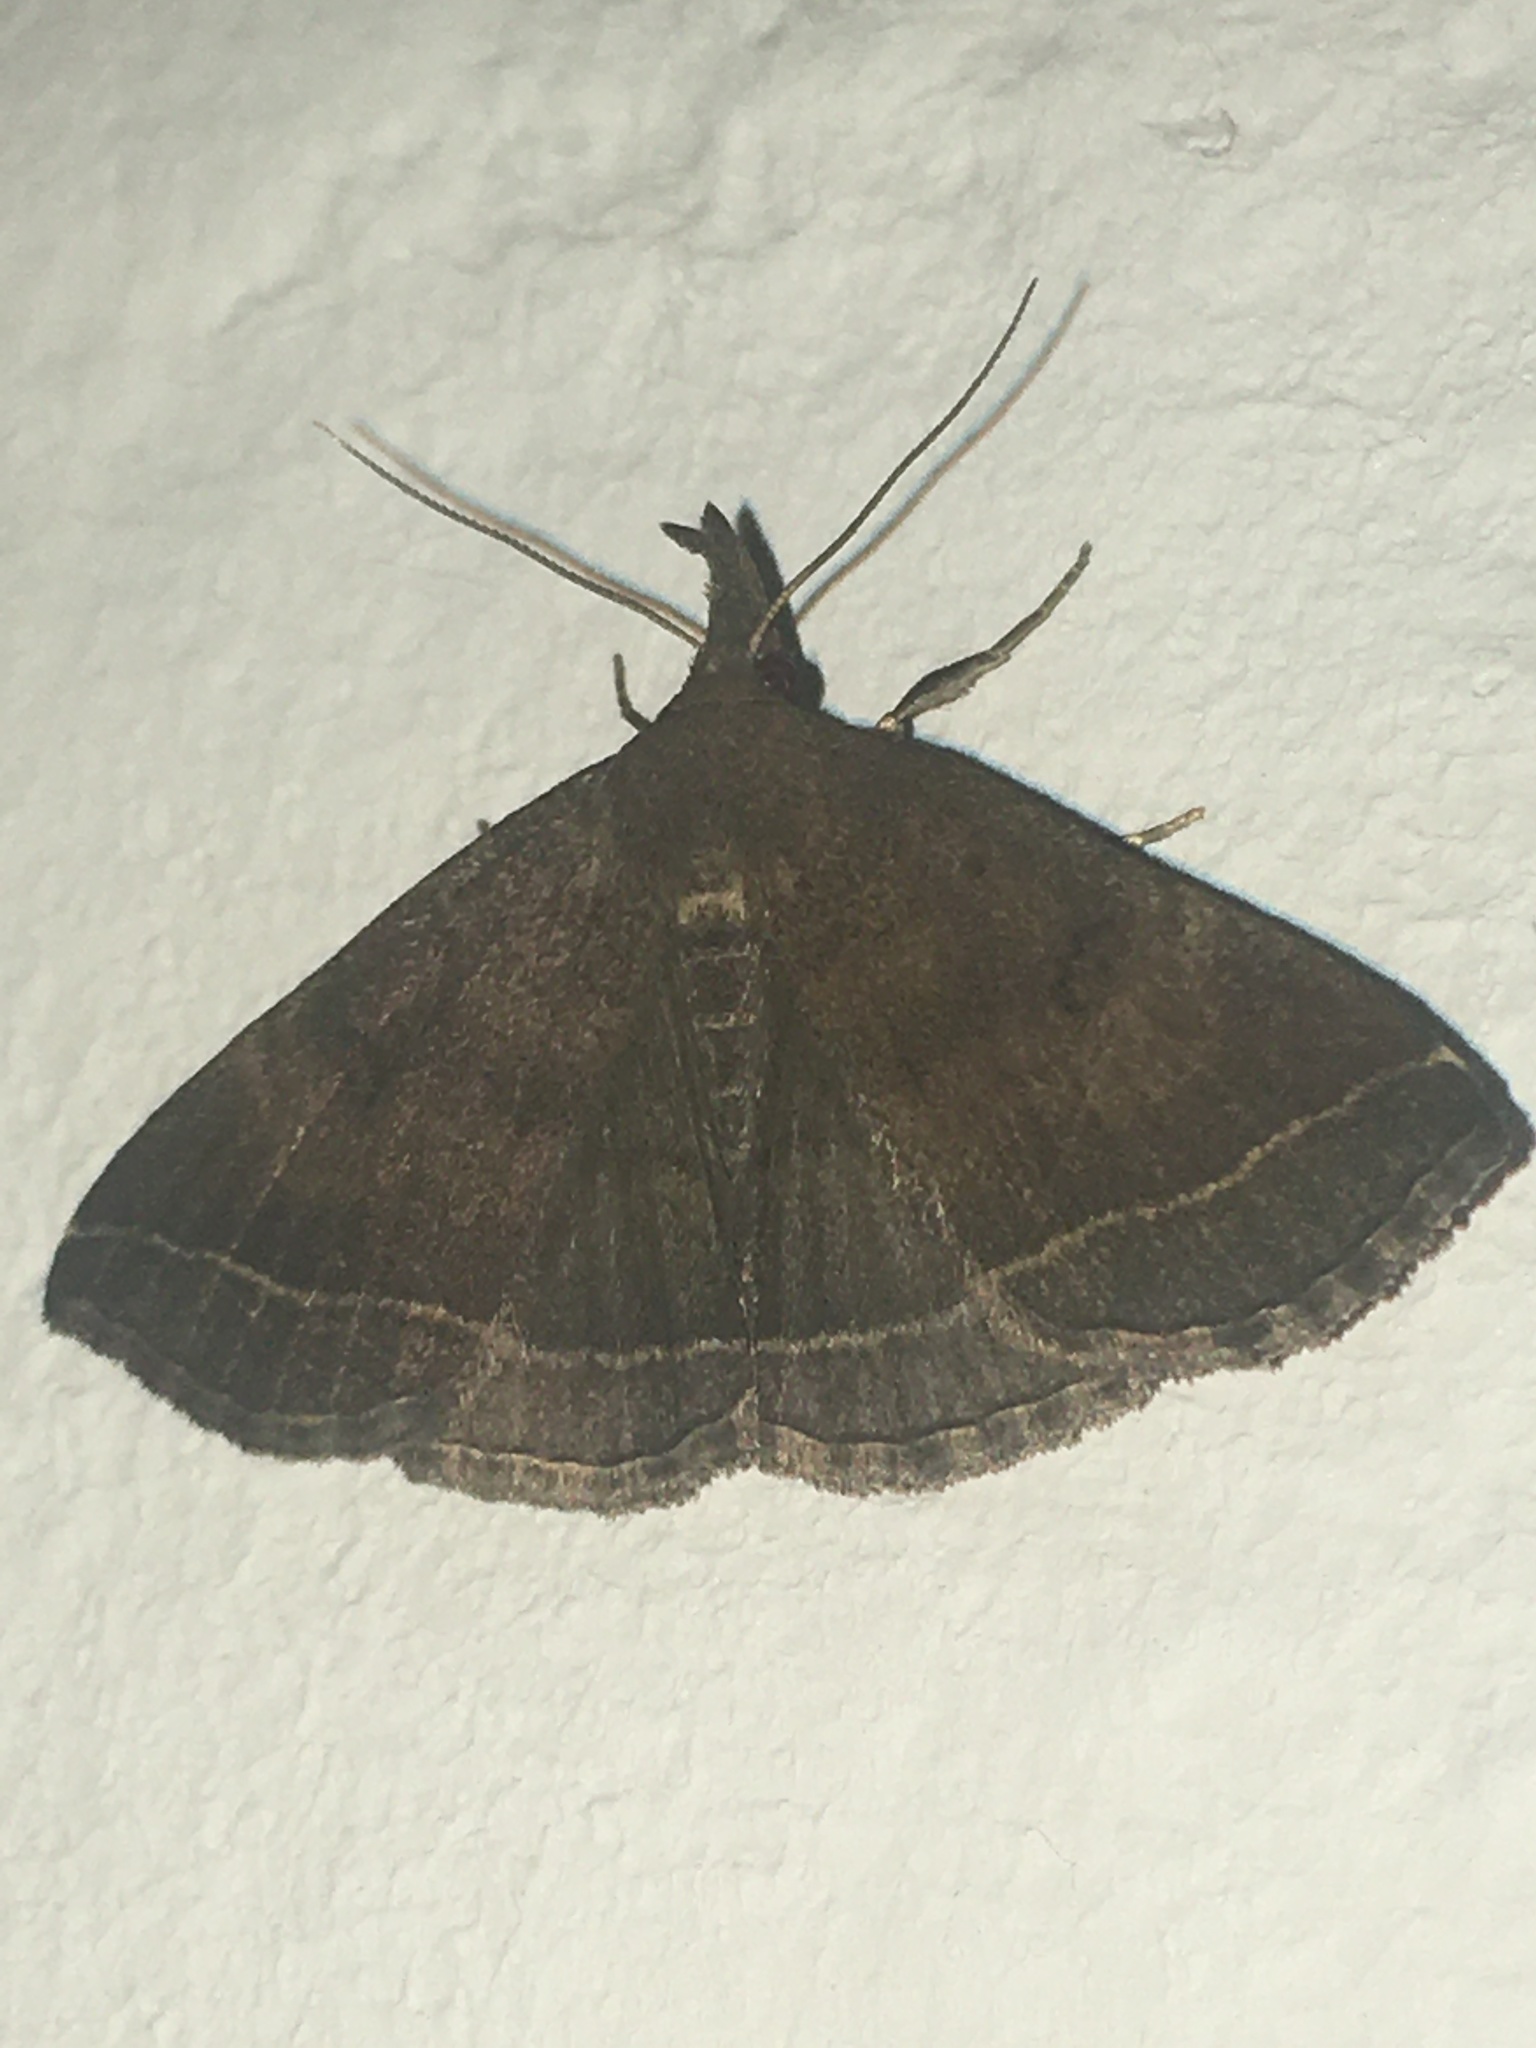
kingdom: Animalia
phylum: Arthropoda
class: Insecta
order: Lepidoptera
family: Erebidae
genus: Pechipogo
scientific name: Pechipogo plumigeralis
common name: Plumed fan-foot
